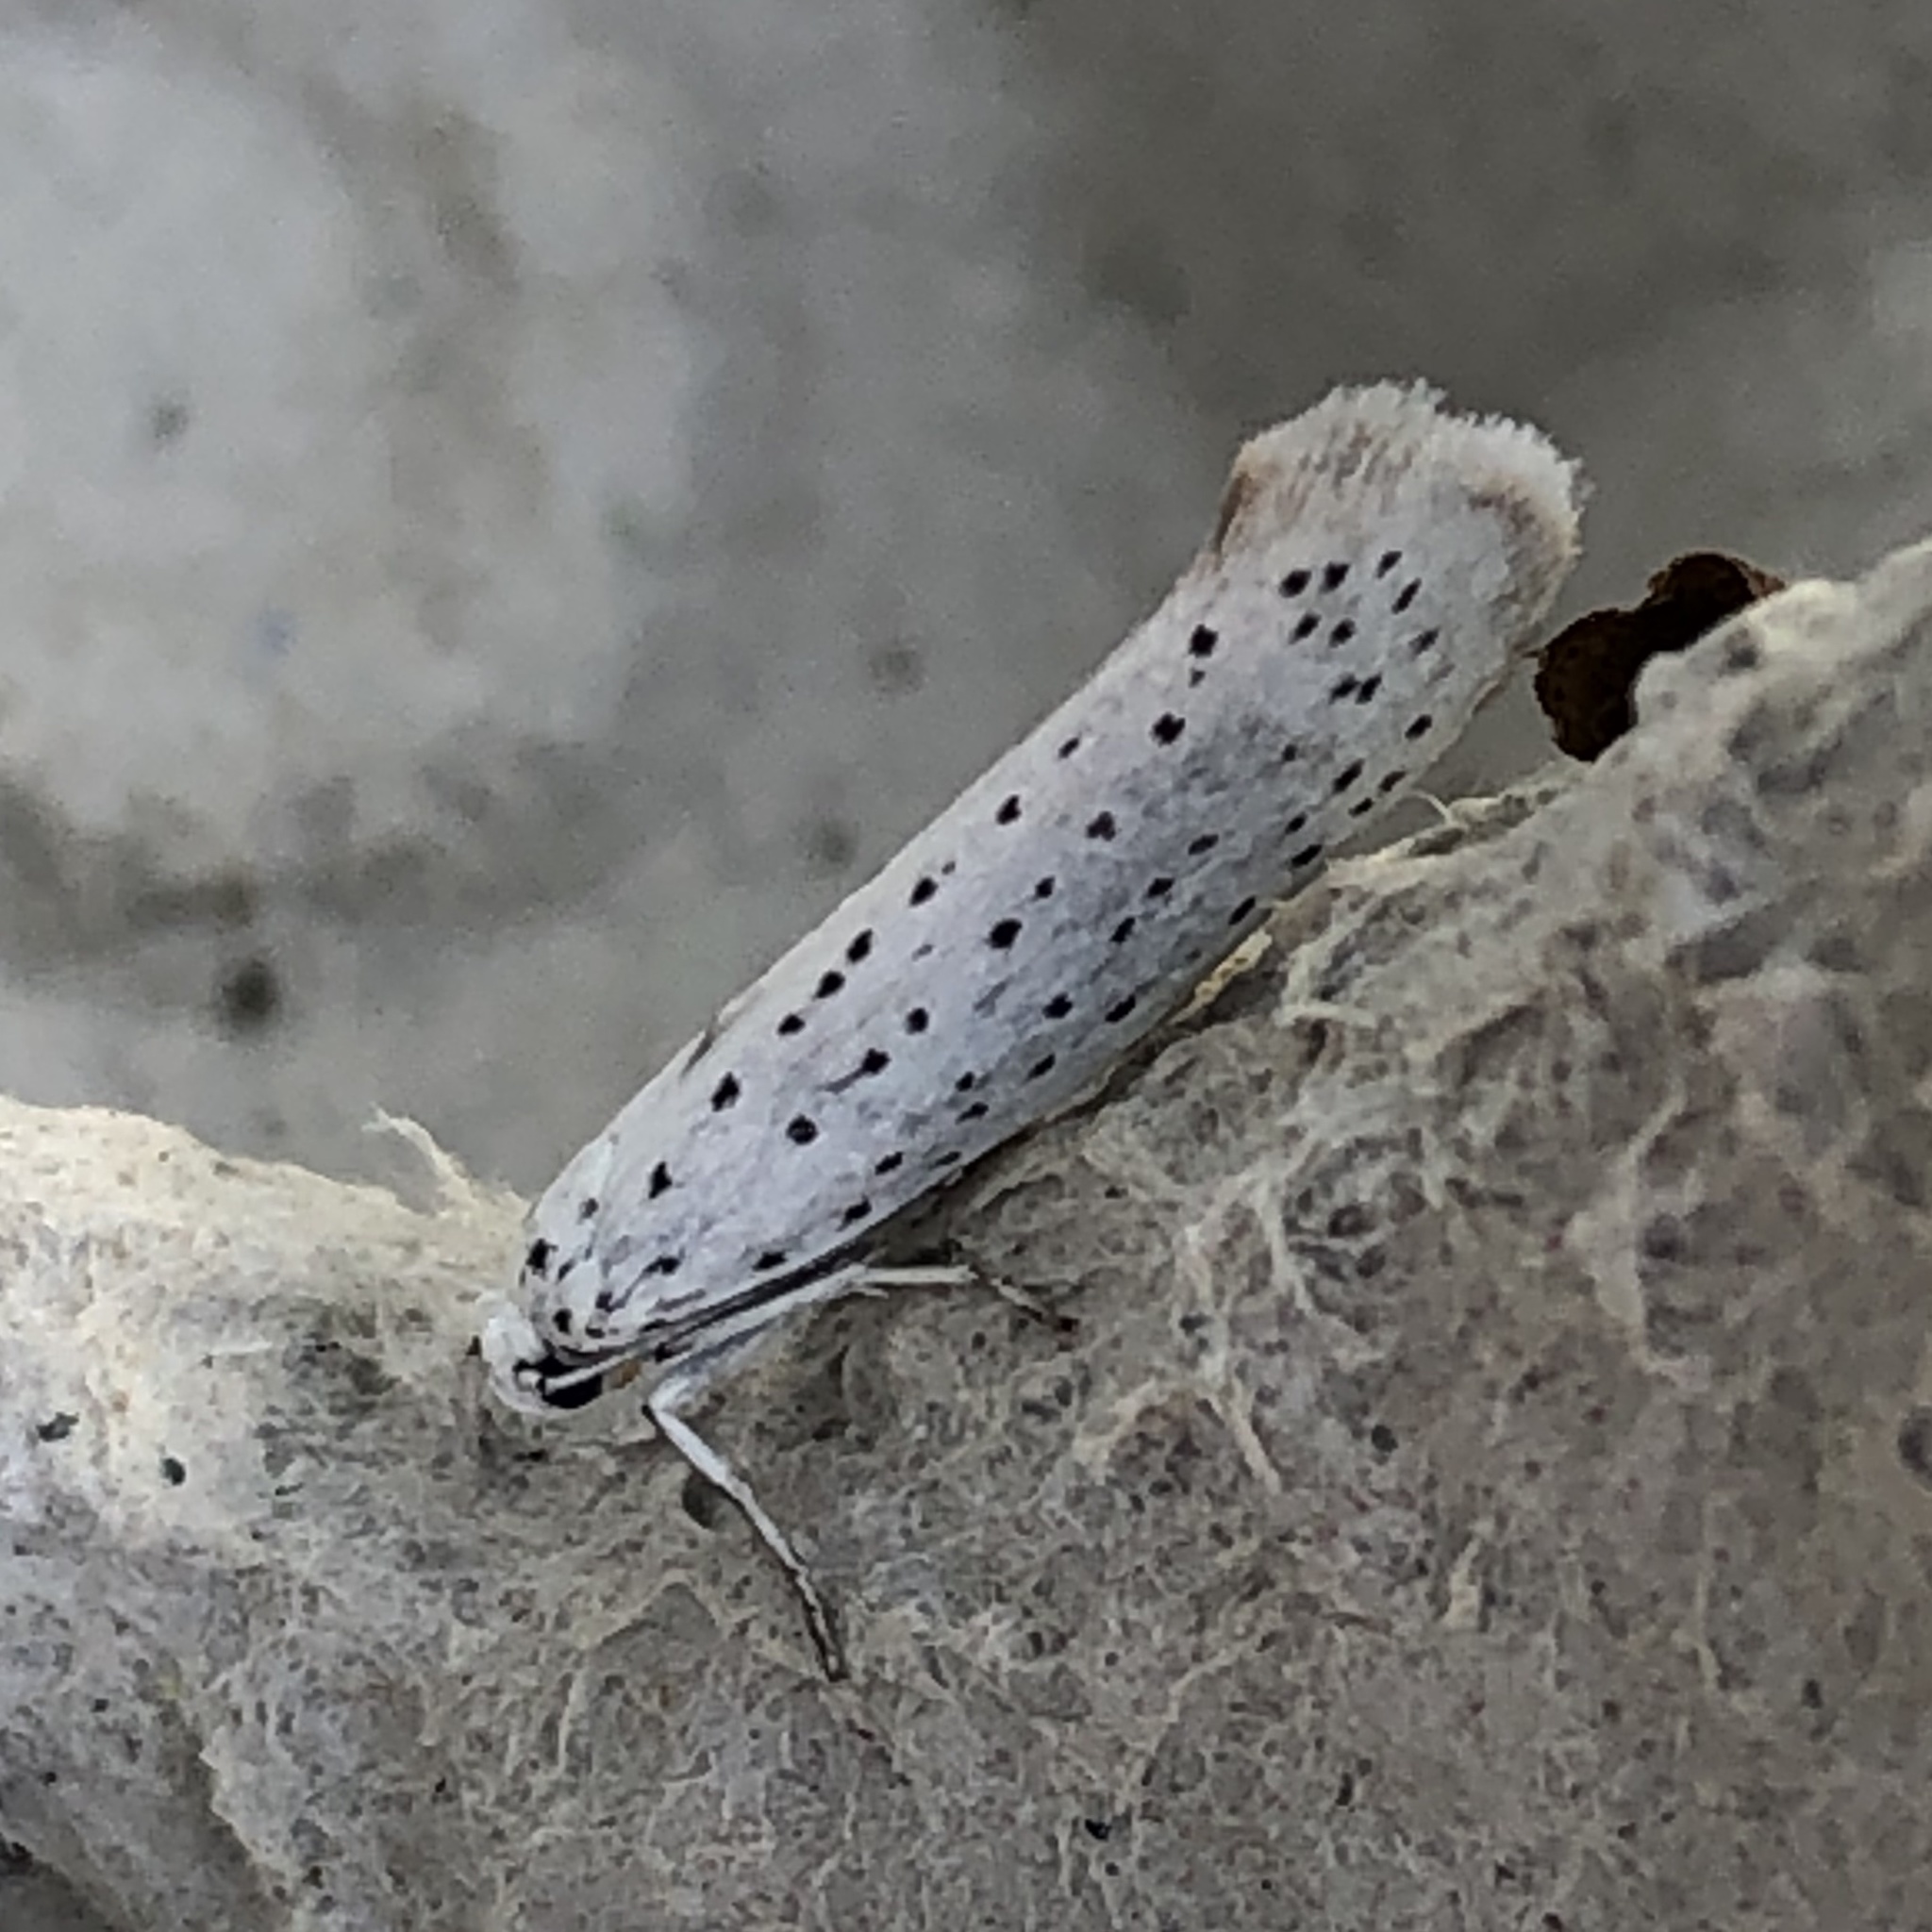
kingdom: Animalia
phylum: Arthropoda
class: Insecta
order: Lepidoptera
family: Yponomeutidae
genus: Yponomeuta
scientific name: Yponomeuta evonymella
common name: Bird-cherry ermine
